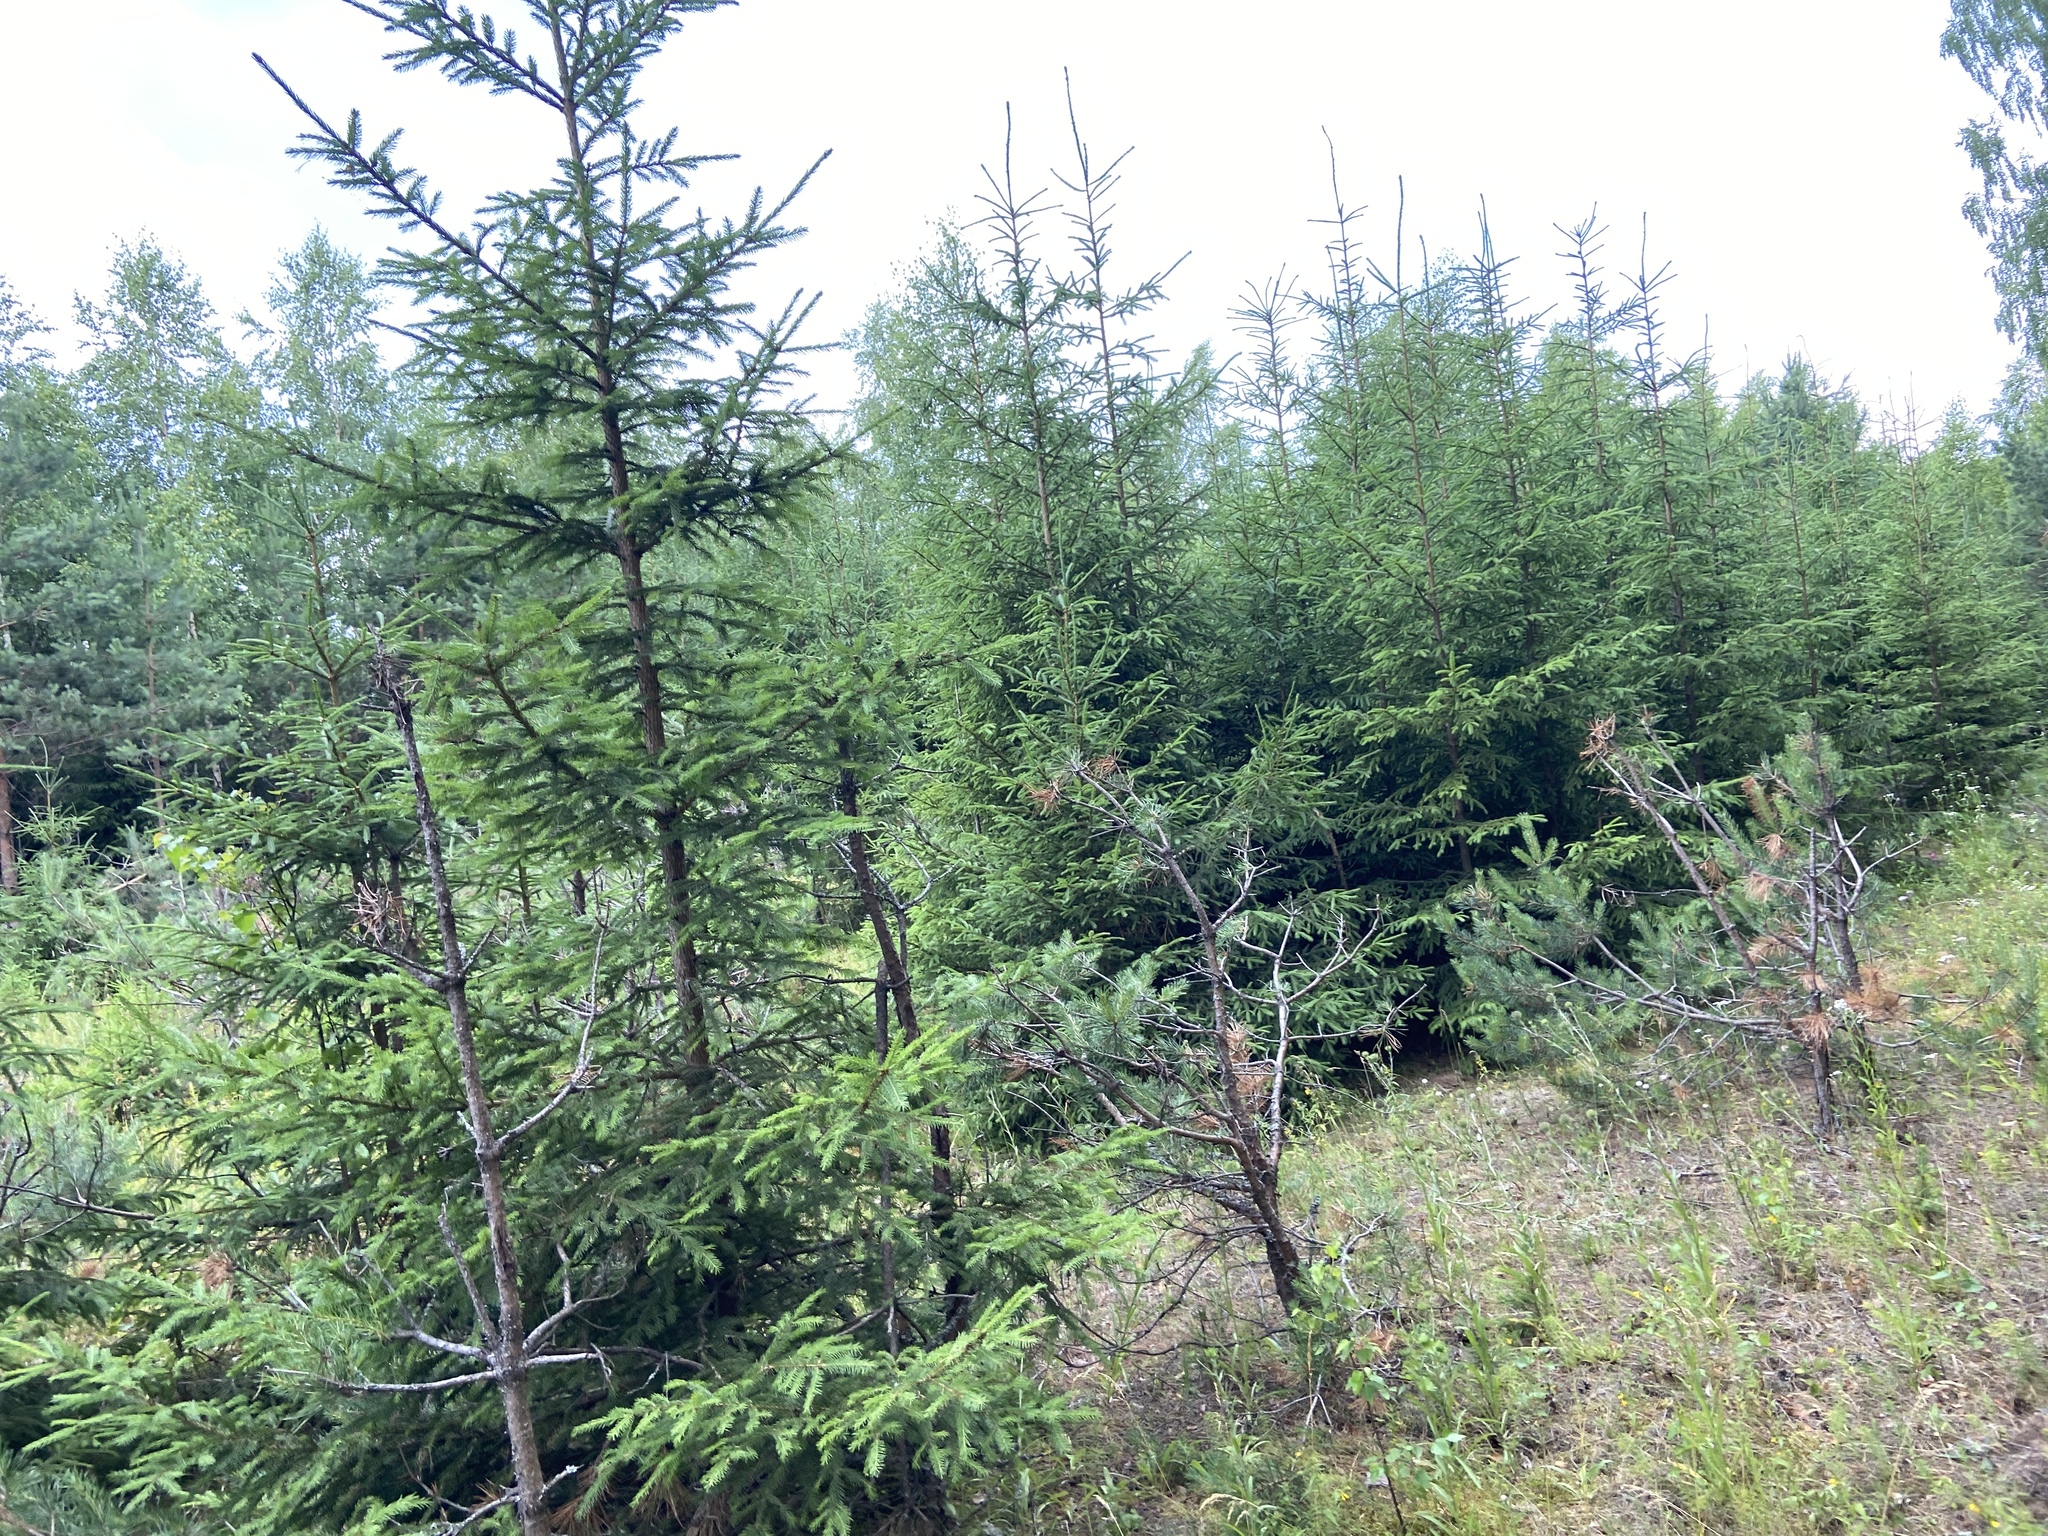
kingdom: Plantae
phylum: Tracheophyta
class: Pinopsida
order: Pinales
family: Pinaceae
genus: Picea
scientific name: Picea abies
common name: Norway spruce
